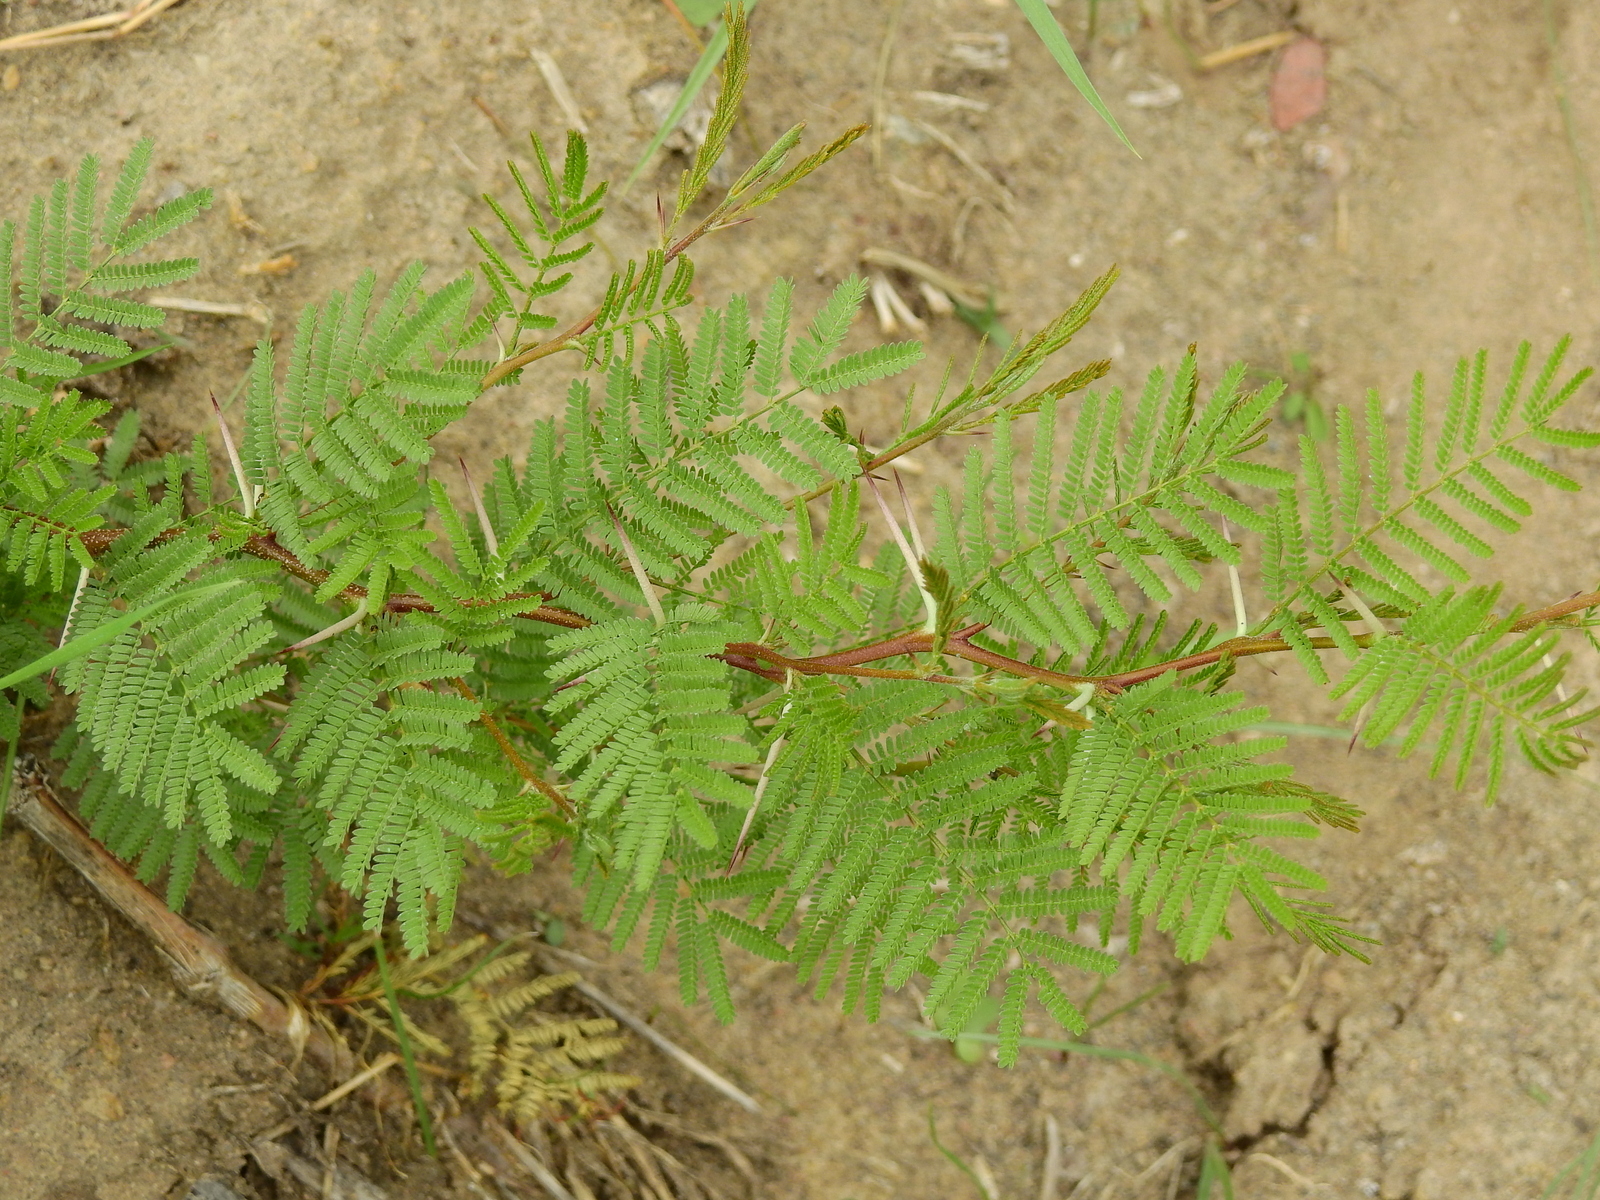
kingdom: Plantae
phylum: Tracheophyta
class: Magnoliopsida
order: Fabales
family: Fabaceae
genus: Vachellia
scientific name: Vachellia caven
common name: Roman cassie
